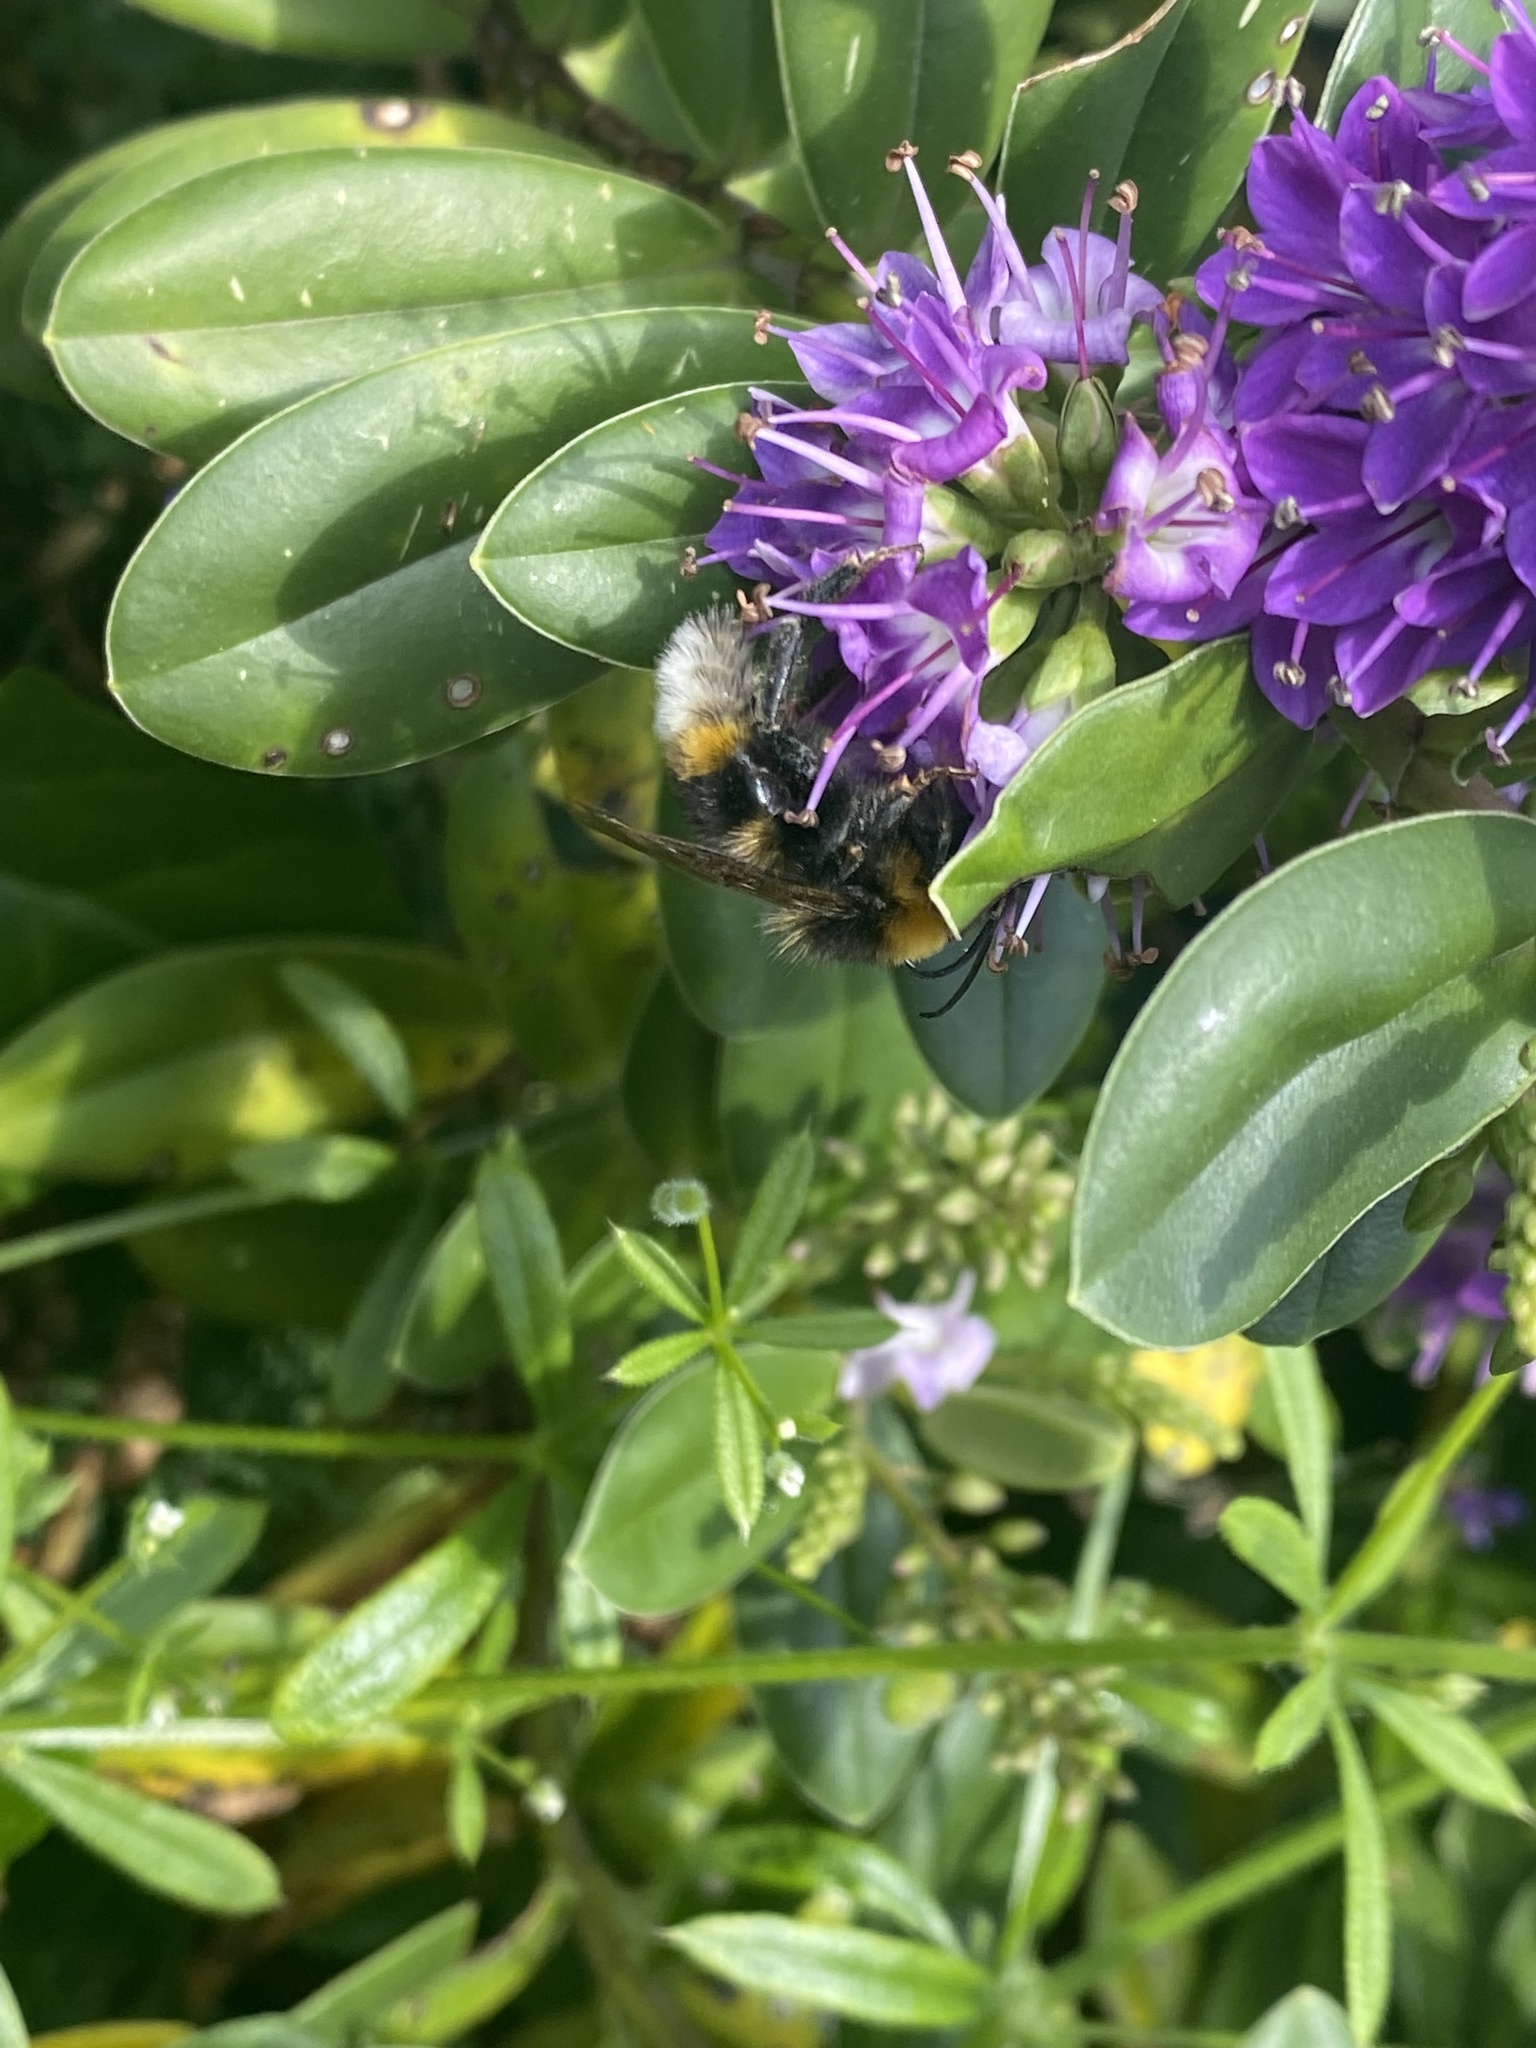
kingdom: Animalia
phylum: Arthropoda
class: Insecta
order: Hymenoptera
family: Apidae
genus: Bombus
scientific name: Bombus vestalis
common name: Vestal cuckoo bee
